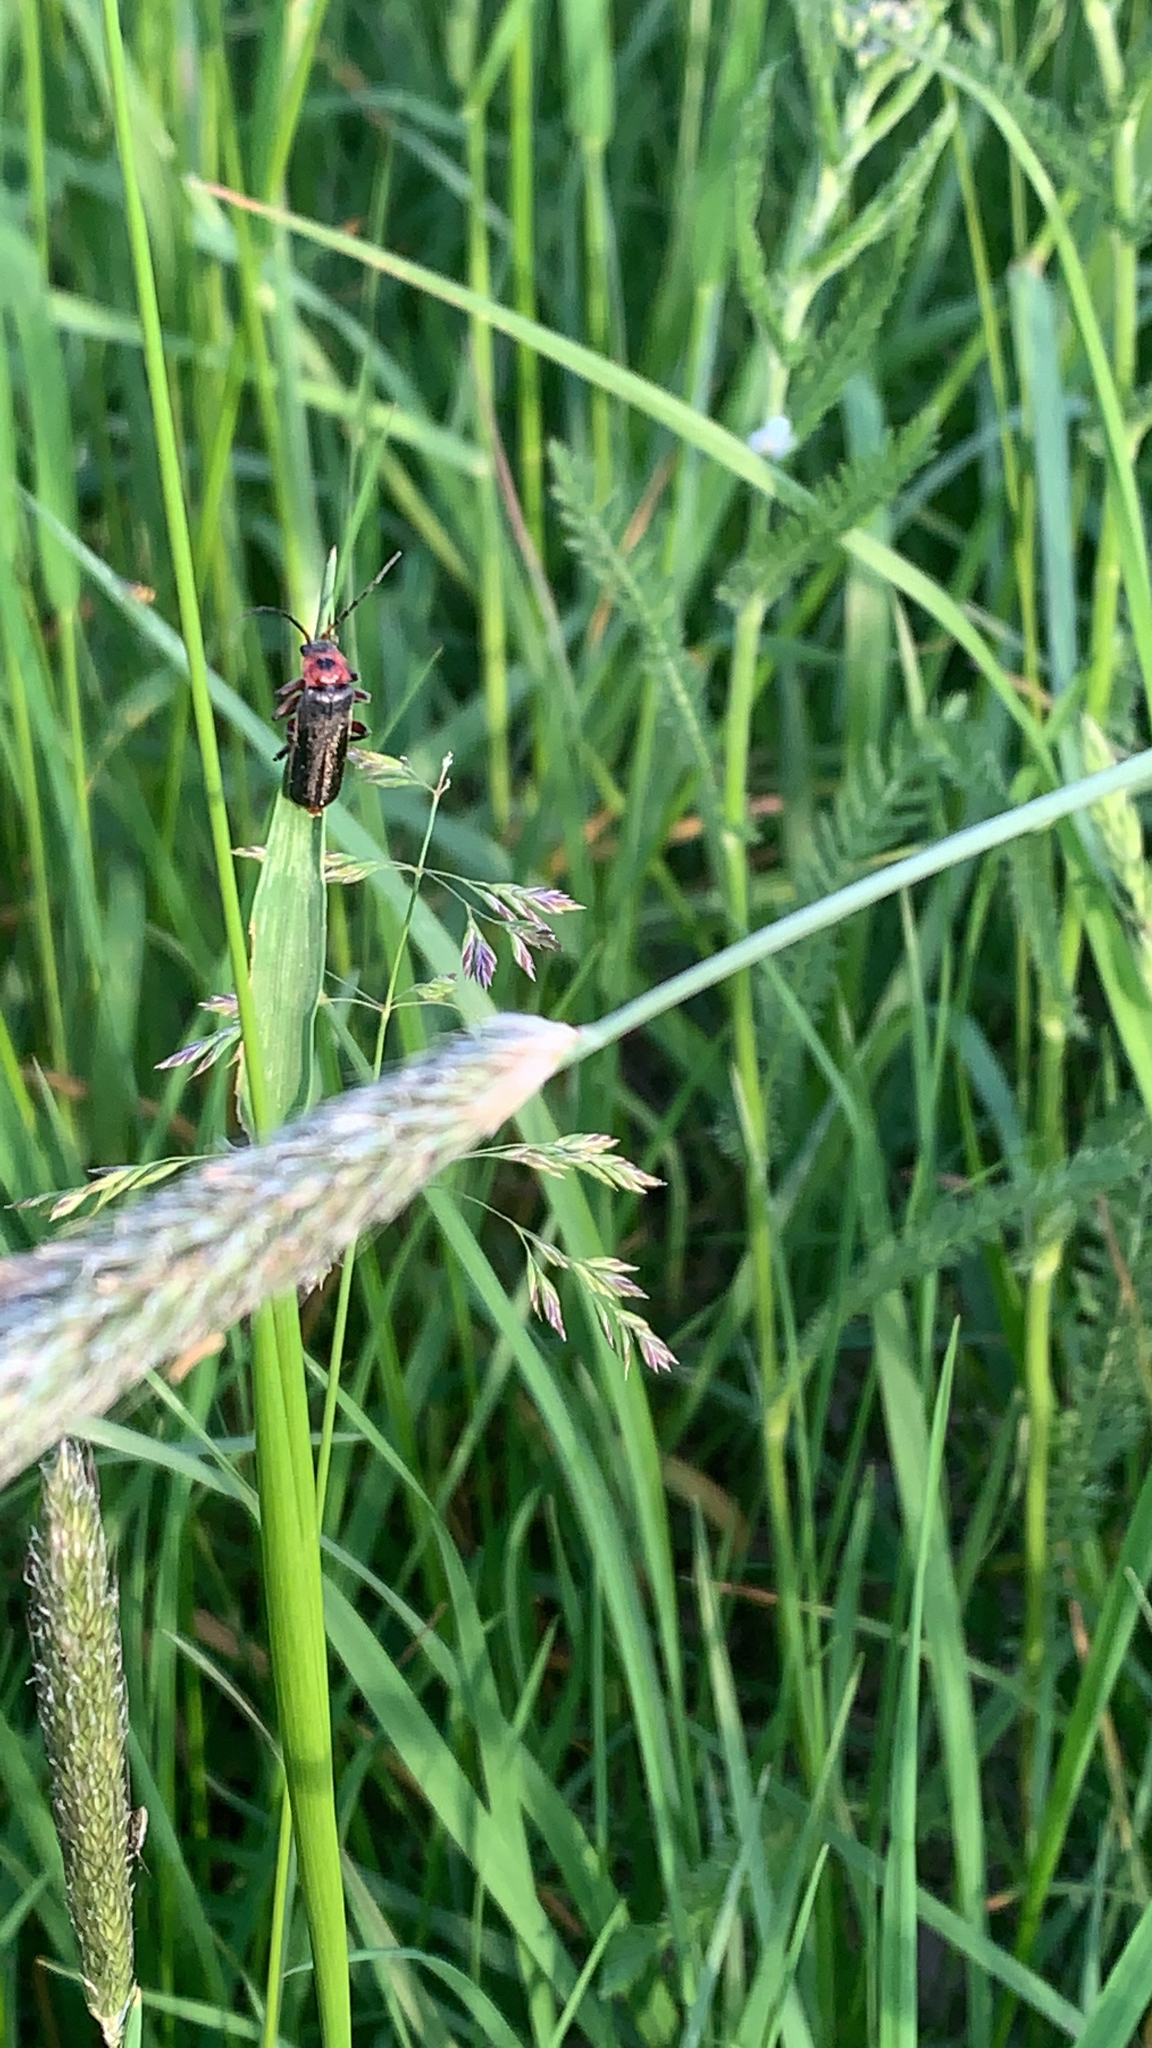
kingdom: Animalia
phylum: Arthropoda
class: Insecta
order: Coleoptera
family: Cantharidae
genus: Cantharis
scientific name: Cantharis rustica
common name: Soldier beetle
